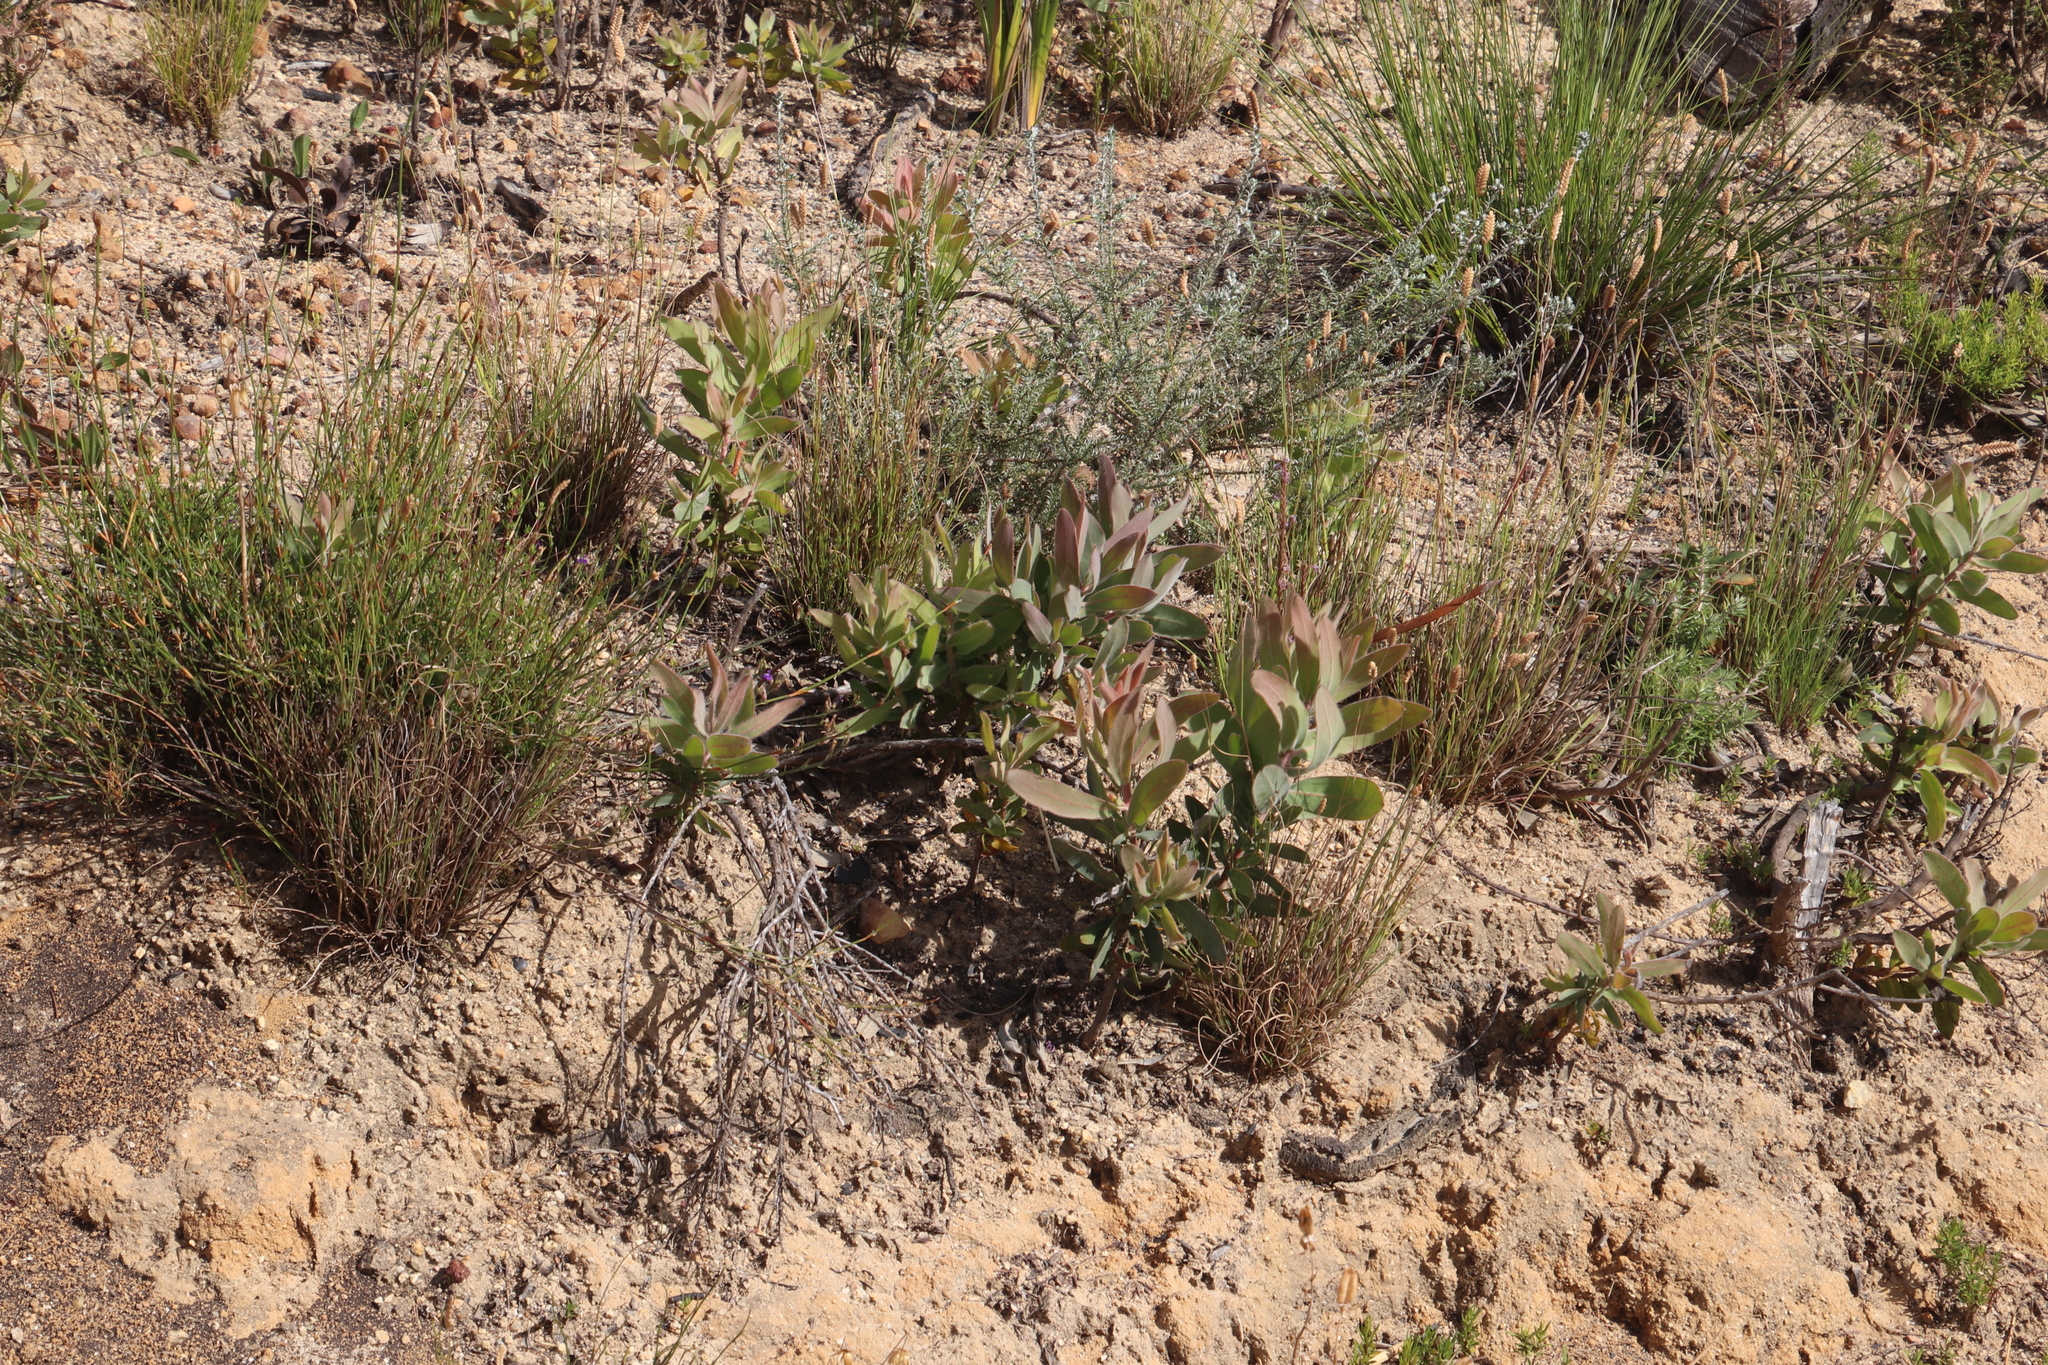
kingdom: Plantae
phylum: Tracheophyta
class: Magnoliopsida
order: Proteales
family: Proteaceae
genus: Protea
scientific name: Protea laurifolia
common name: Grey-leaf sugarbsh
